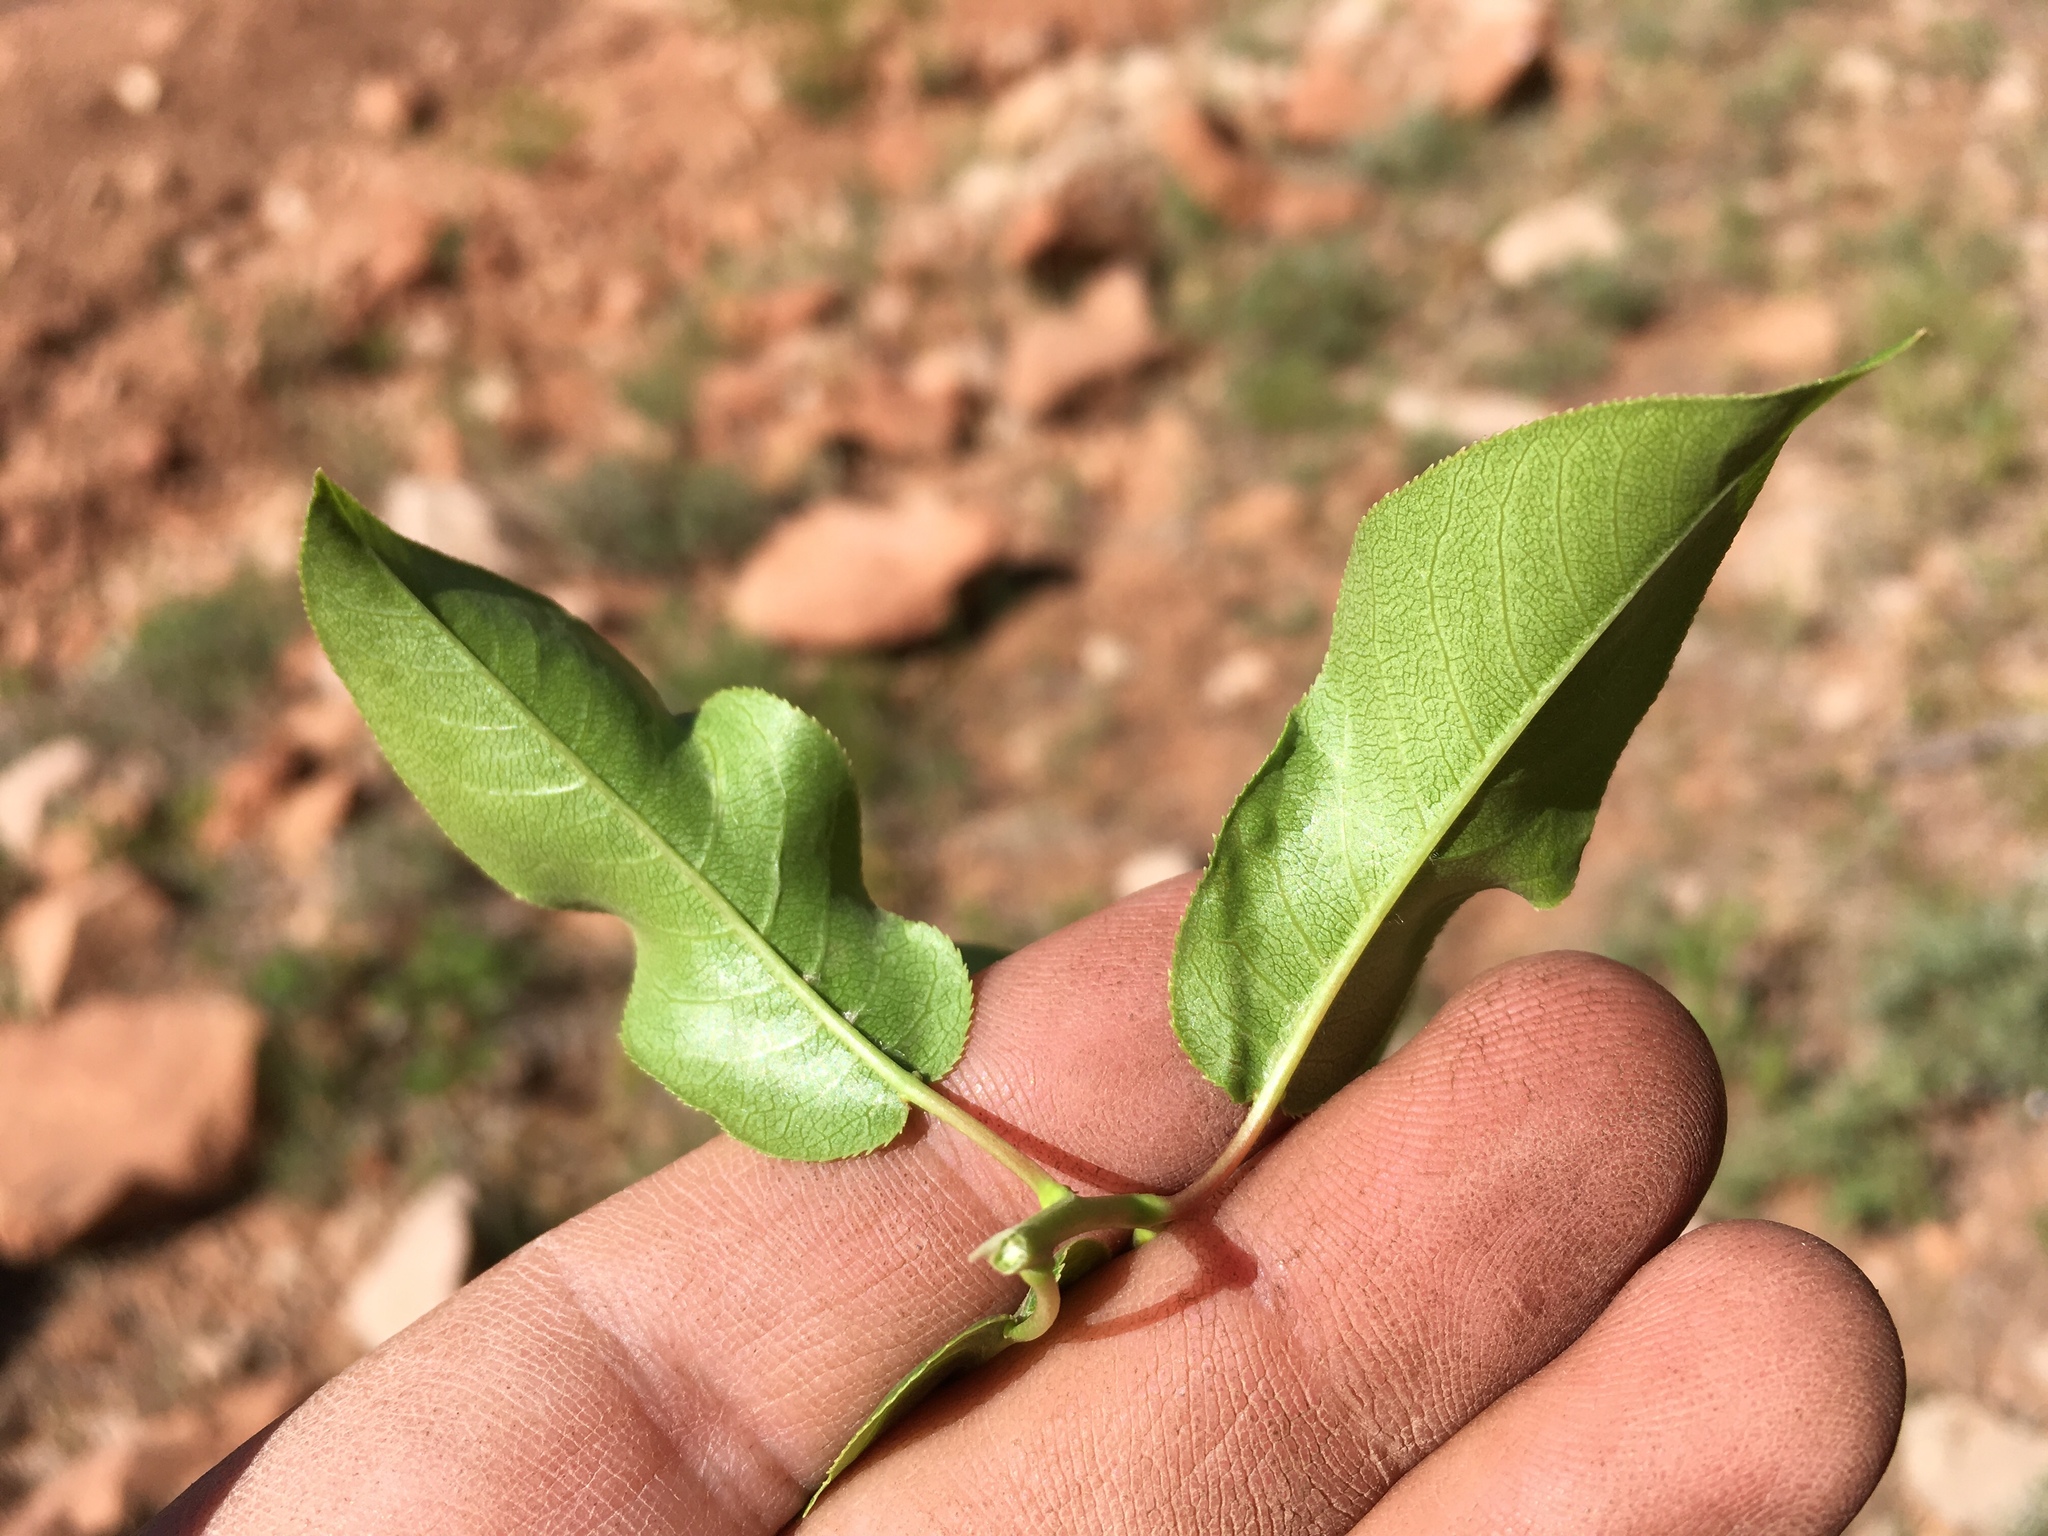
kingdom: Plantae
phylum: Tracheophyta
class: Magnoliopsida
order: Rosales
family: Rosaceae
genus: Prunus
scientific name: Prunus virginiana
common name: Chokecherry
